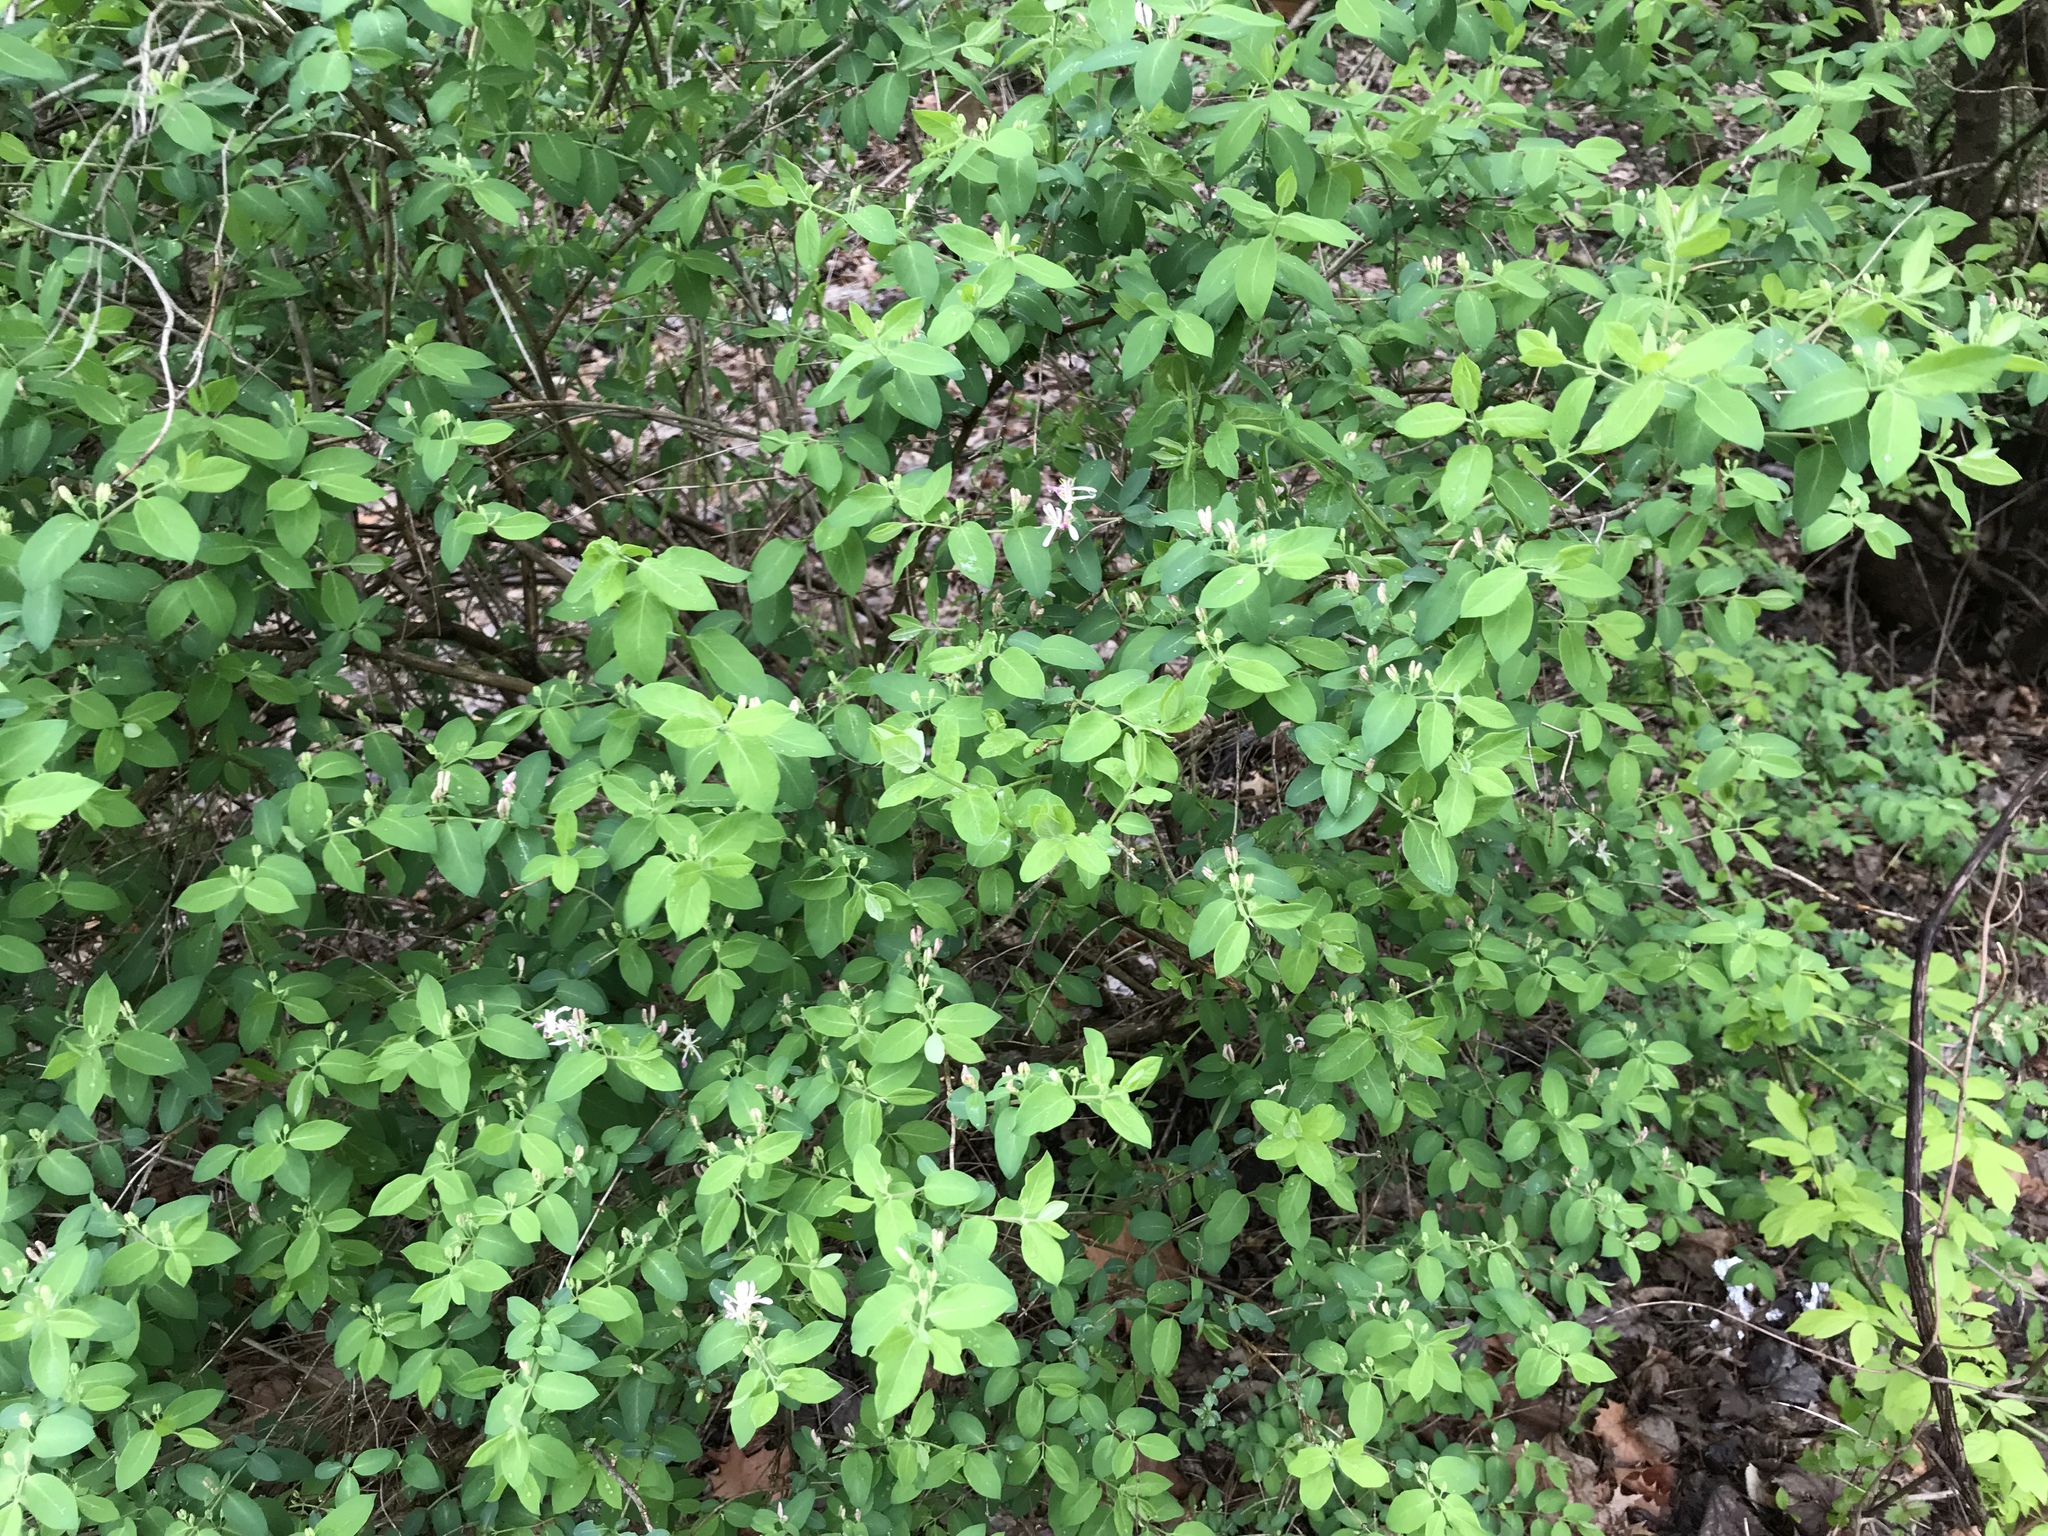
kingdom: Plantae
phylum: Tracheophyta
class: Magnoliopsida
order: Dipsacales
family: Caprifoliaceae
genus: Lonicera
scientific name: Lonicera tatarica
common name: Tatarian honeysuckle
